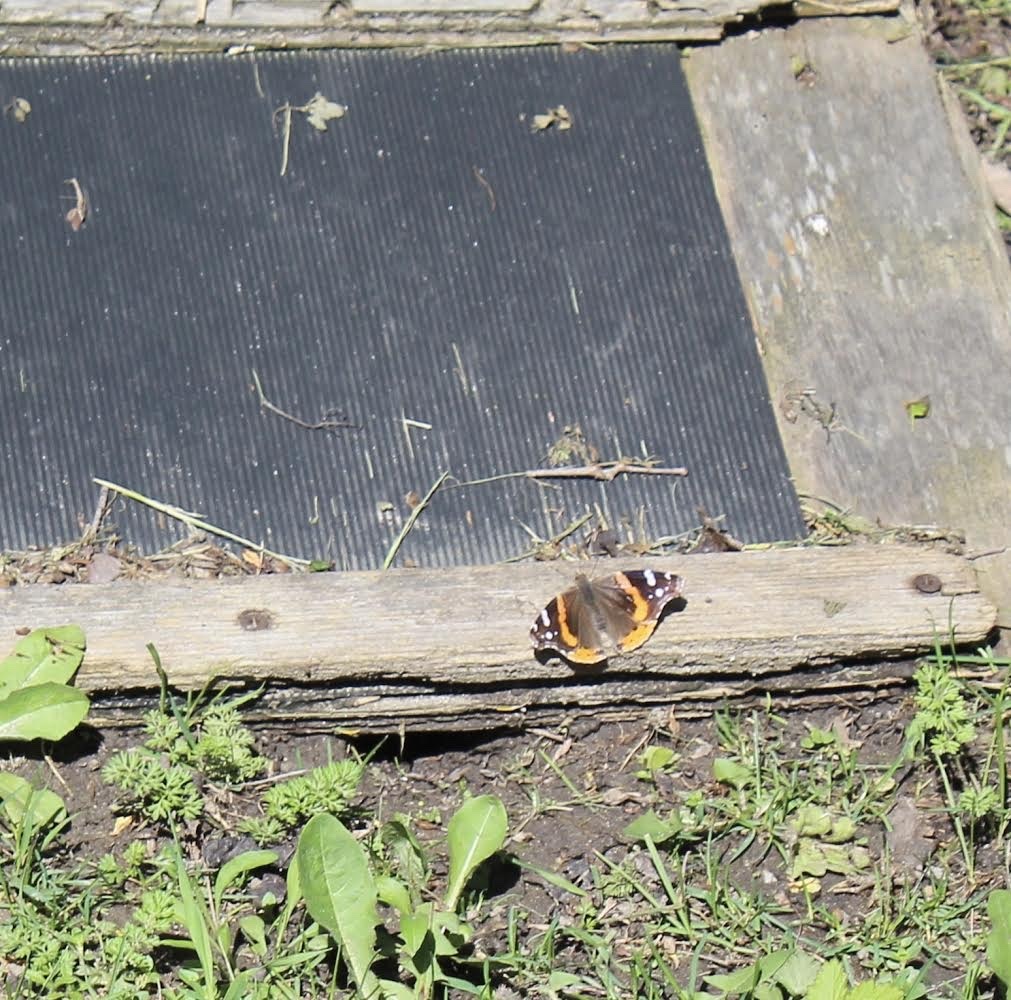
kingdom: Animalia
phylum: Arthropoda
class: Insecta
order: Lepidoptera
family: Nymphalidae
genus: Vanessa
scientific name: Vanessa atalanta
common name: Red admiral
